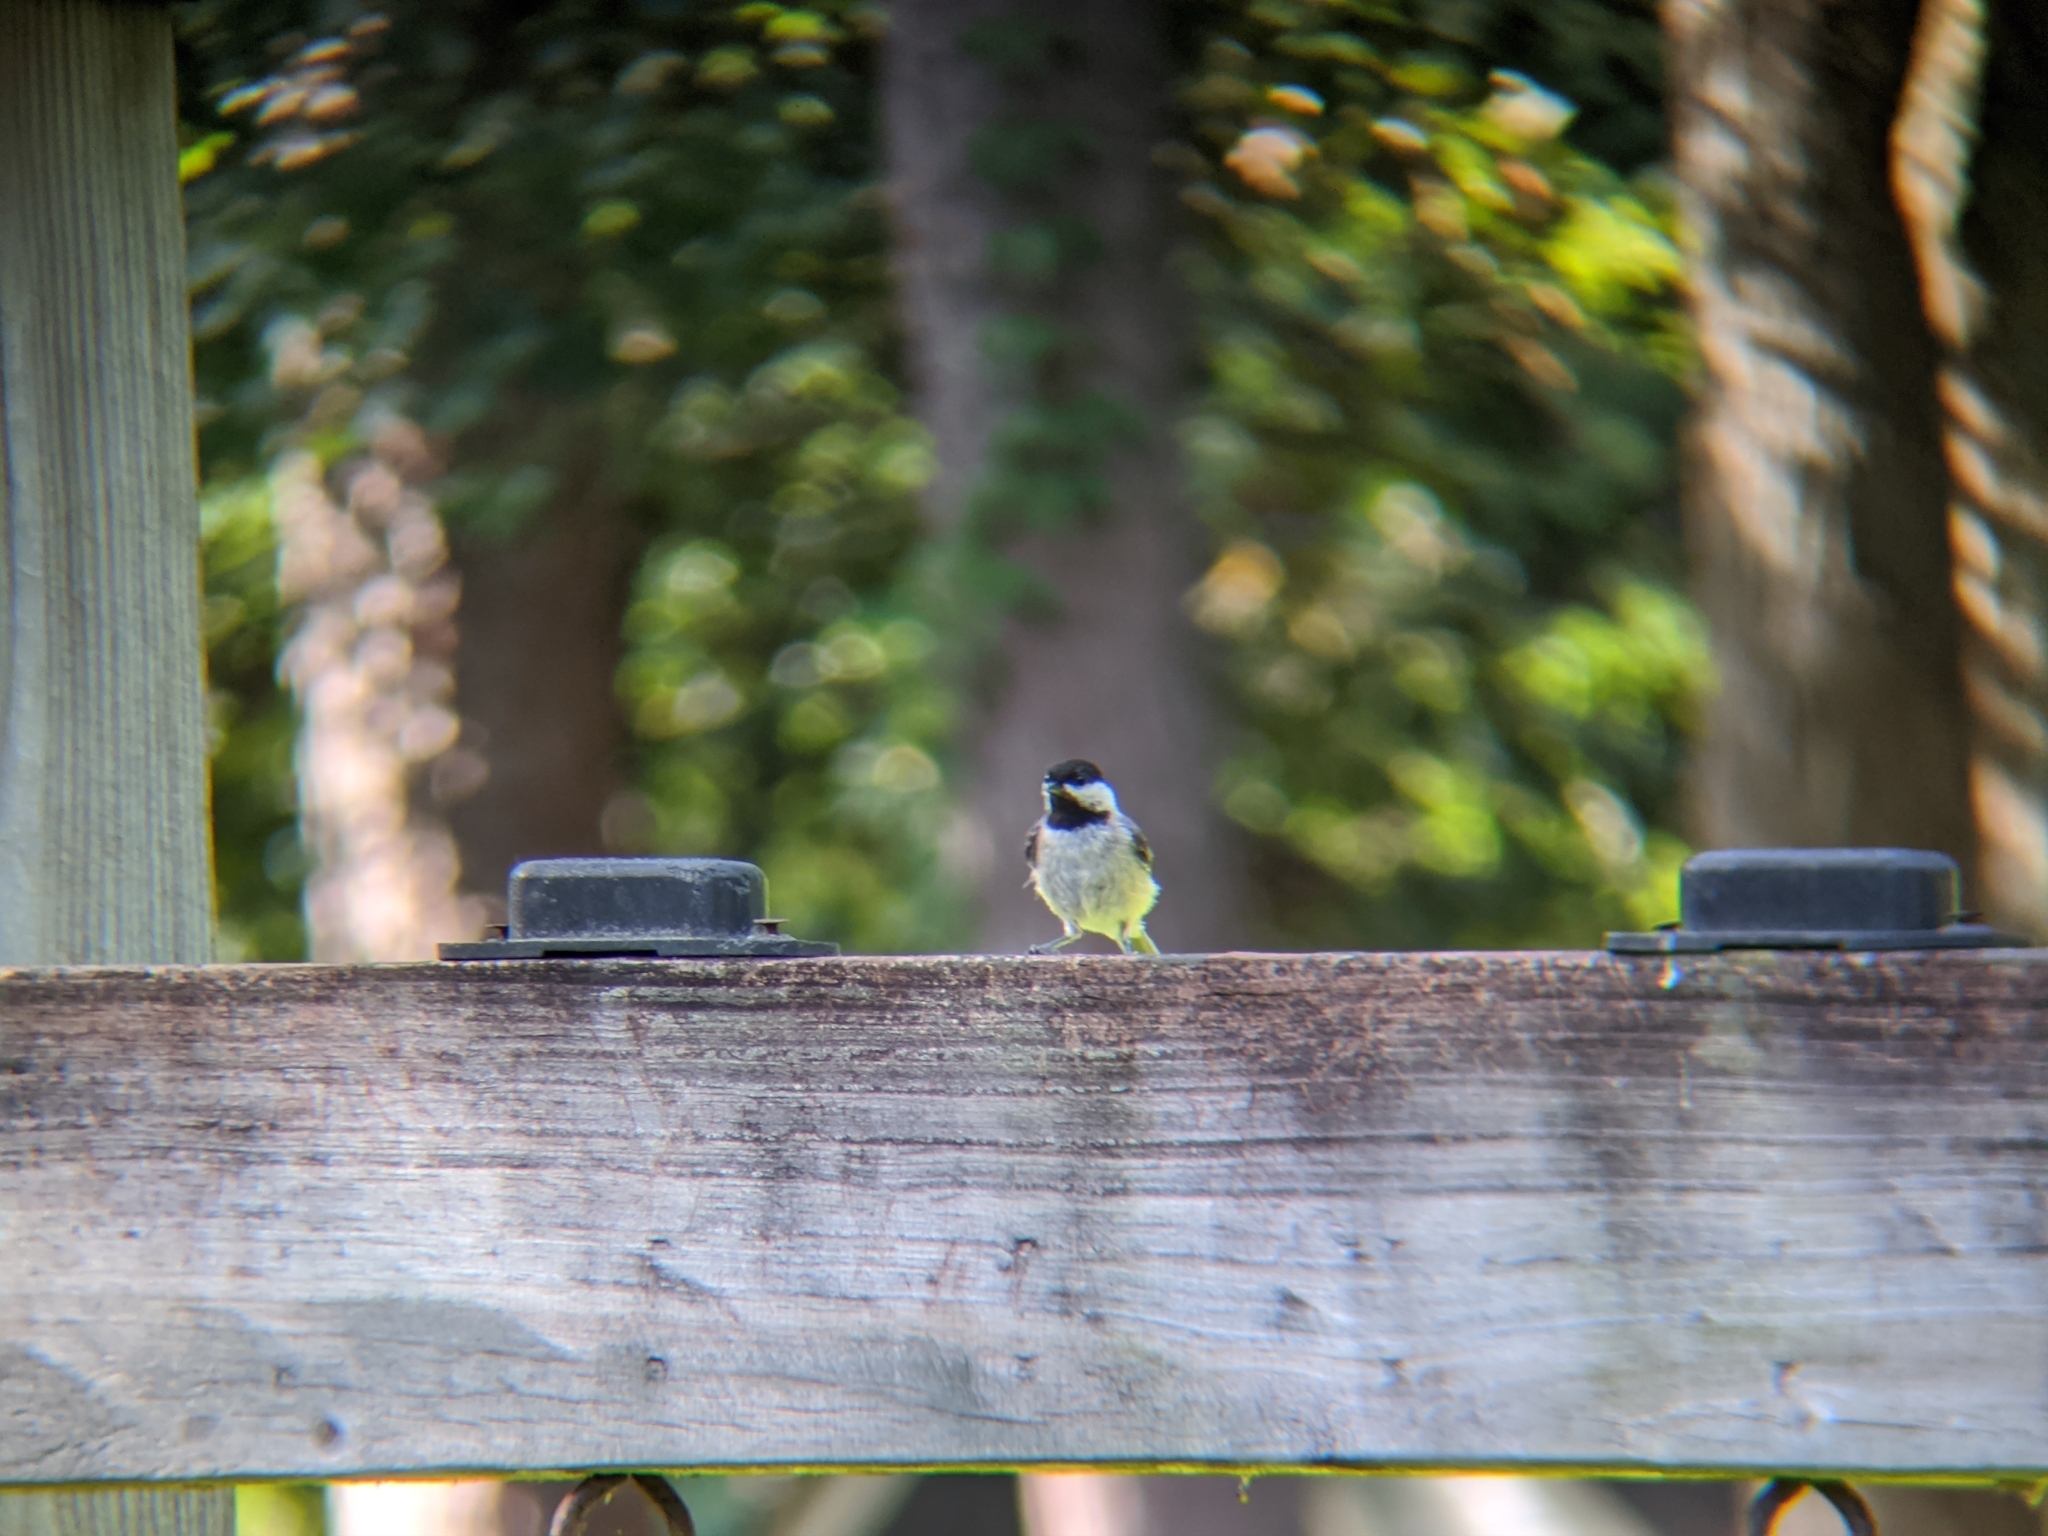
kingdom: Animalia
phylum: Chordata
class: Aves
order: Passeriformes
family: Paridae
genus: Poecile
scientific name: Poecile carolinensis
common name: Carolina chickadee
